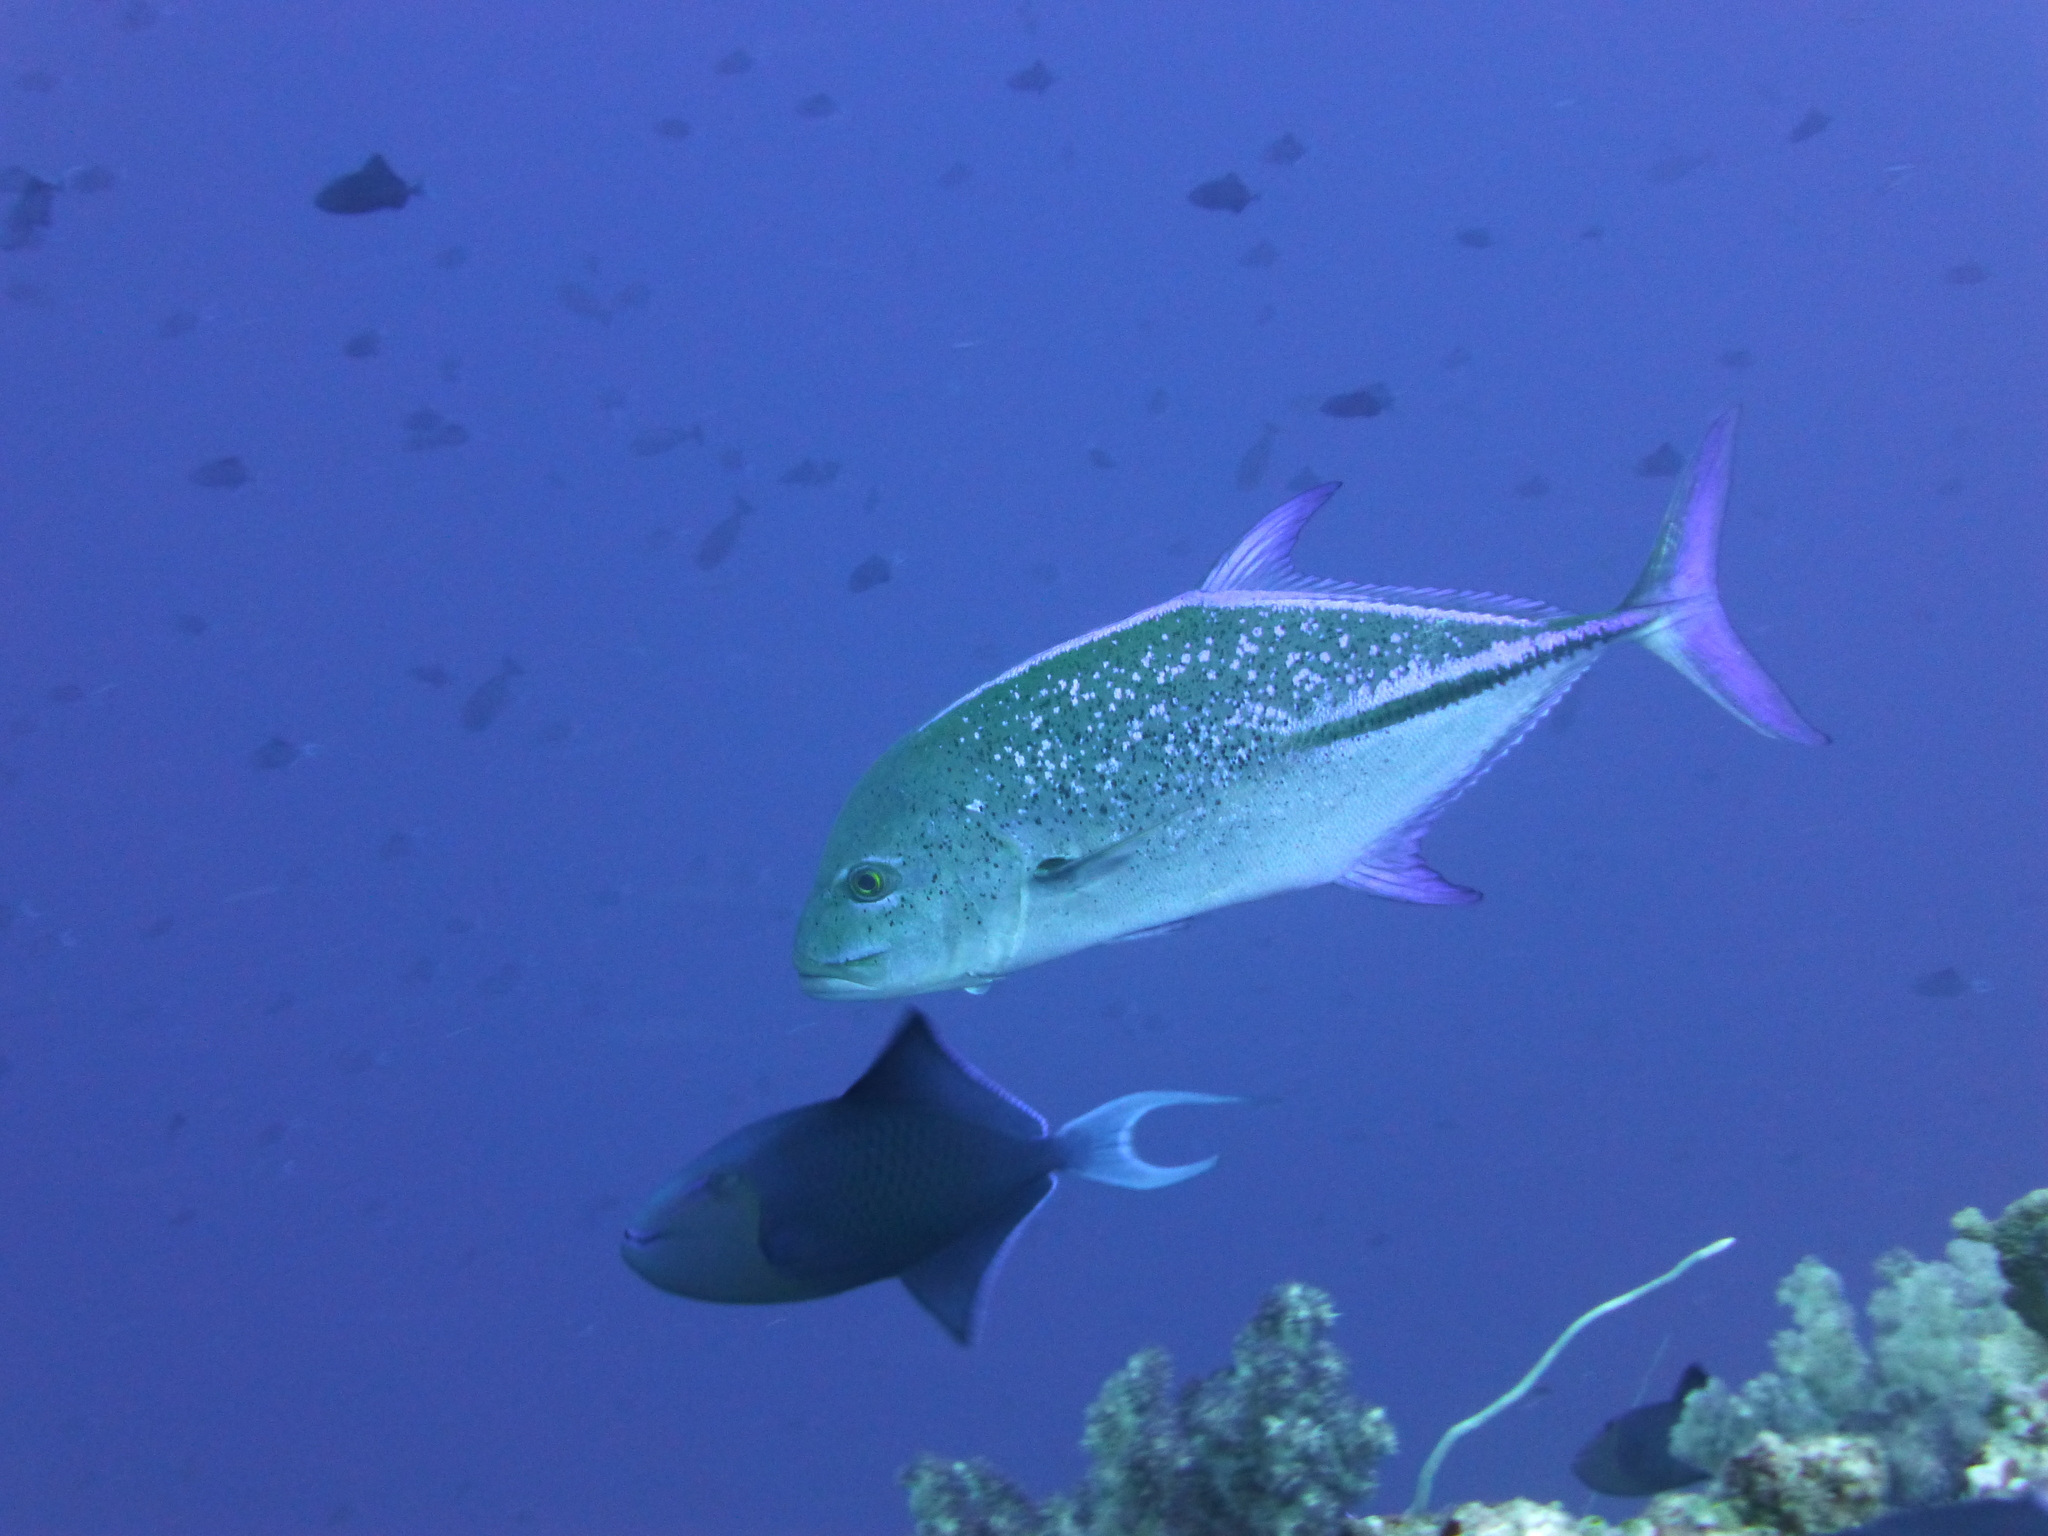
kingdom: Animalia
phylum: Chordata
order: Perciformes
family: Carangidae
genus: Caranx
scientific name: Caranx melampygus
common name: Bluefin trevally
